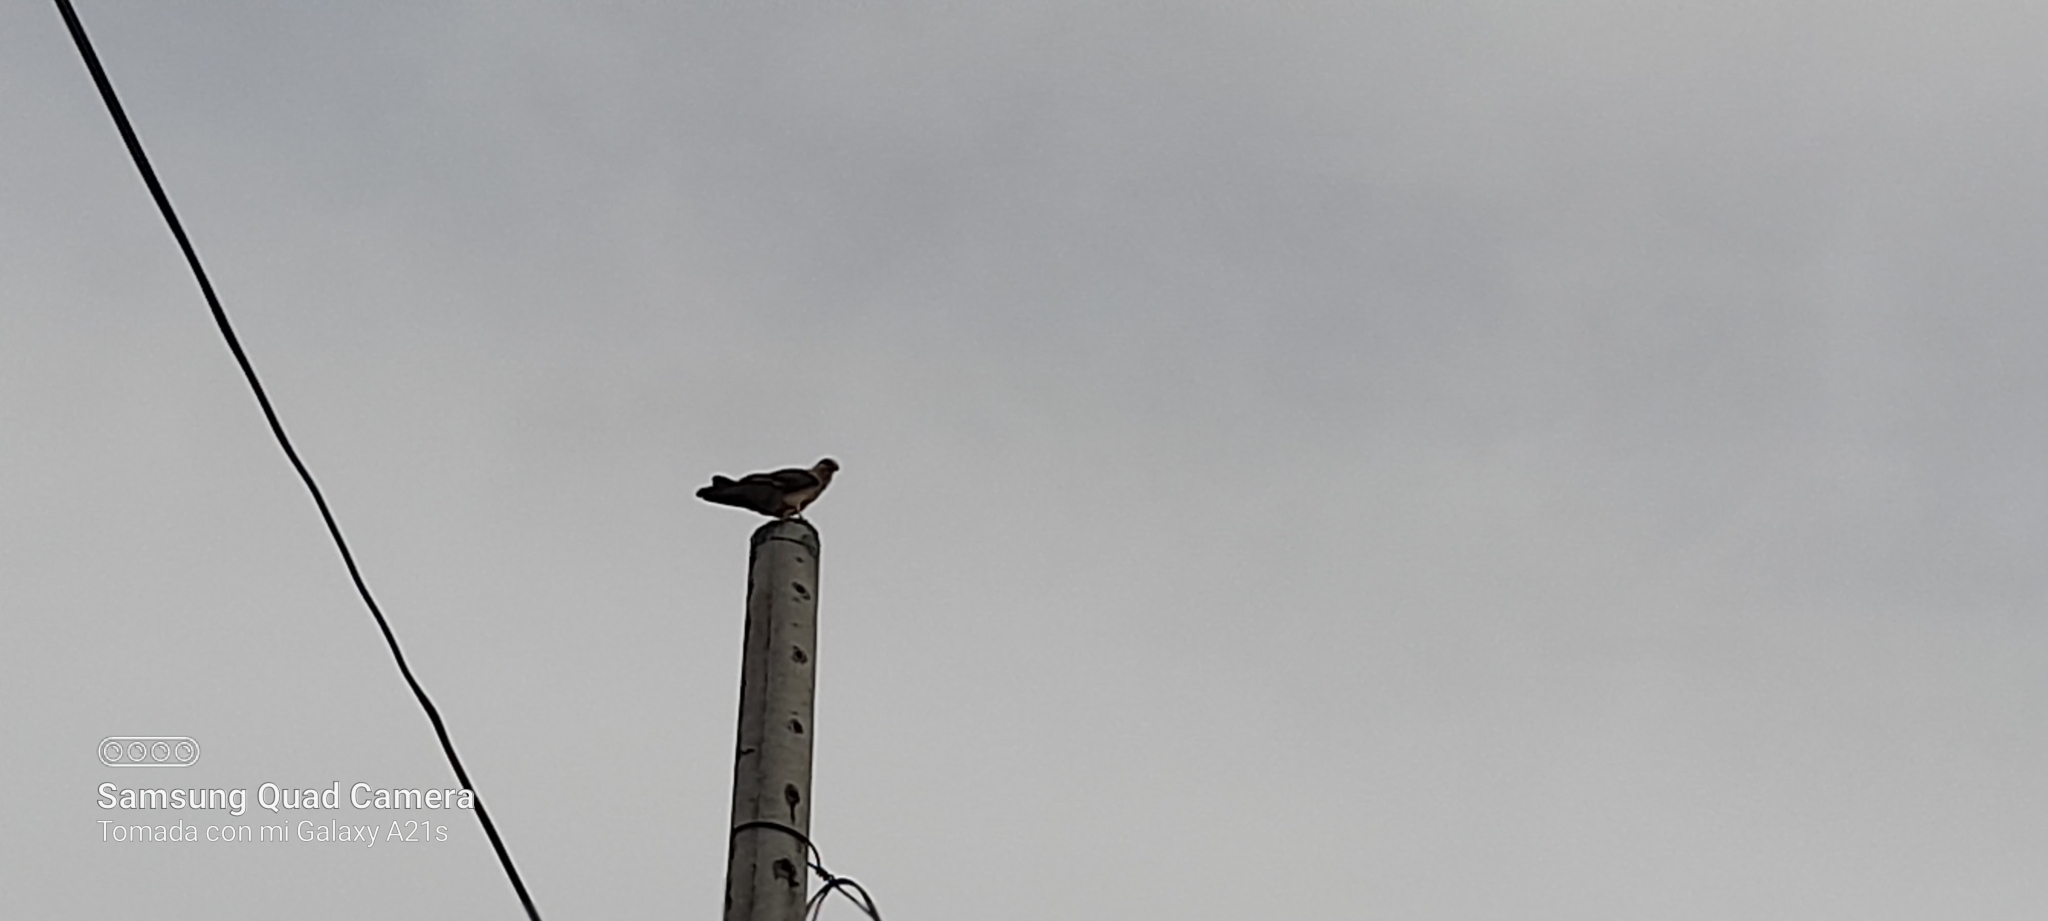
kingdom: Animalia
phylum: Chordata
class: Aves
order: Falconiformes
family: Falconidae
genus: Daptrius
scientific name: Daptrius
